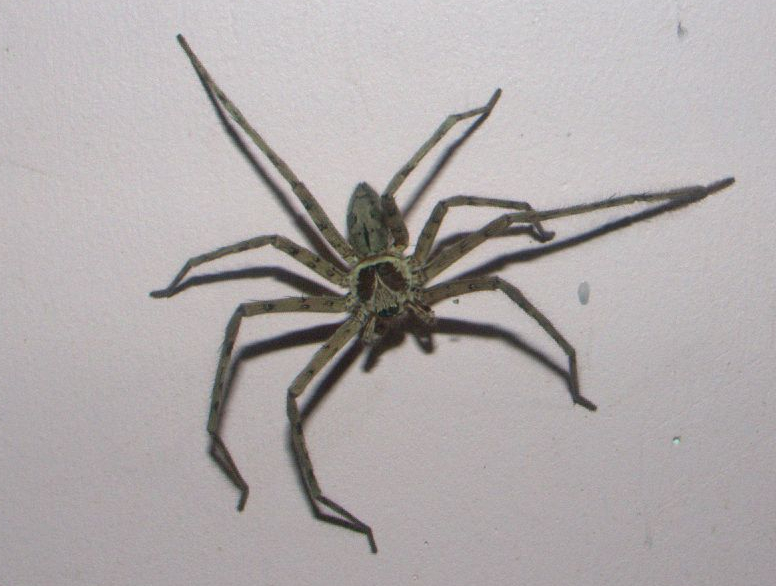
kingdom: Animalia
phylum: Arthropoda
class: Arachnida
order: Araneae
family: Sparassidae
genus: Heteropoda
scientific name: Heteropoda venatoria
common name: Huntsman spider
